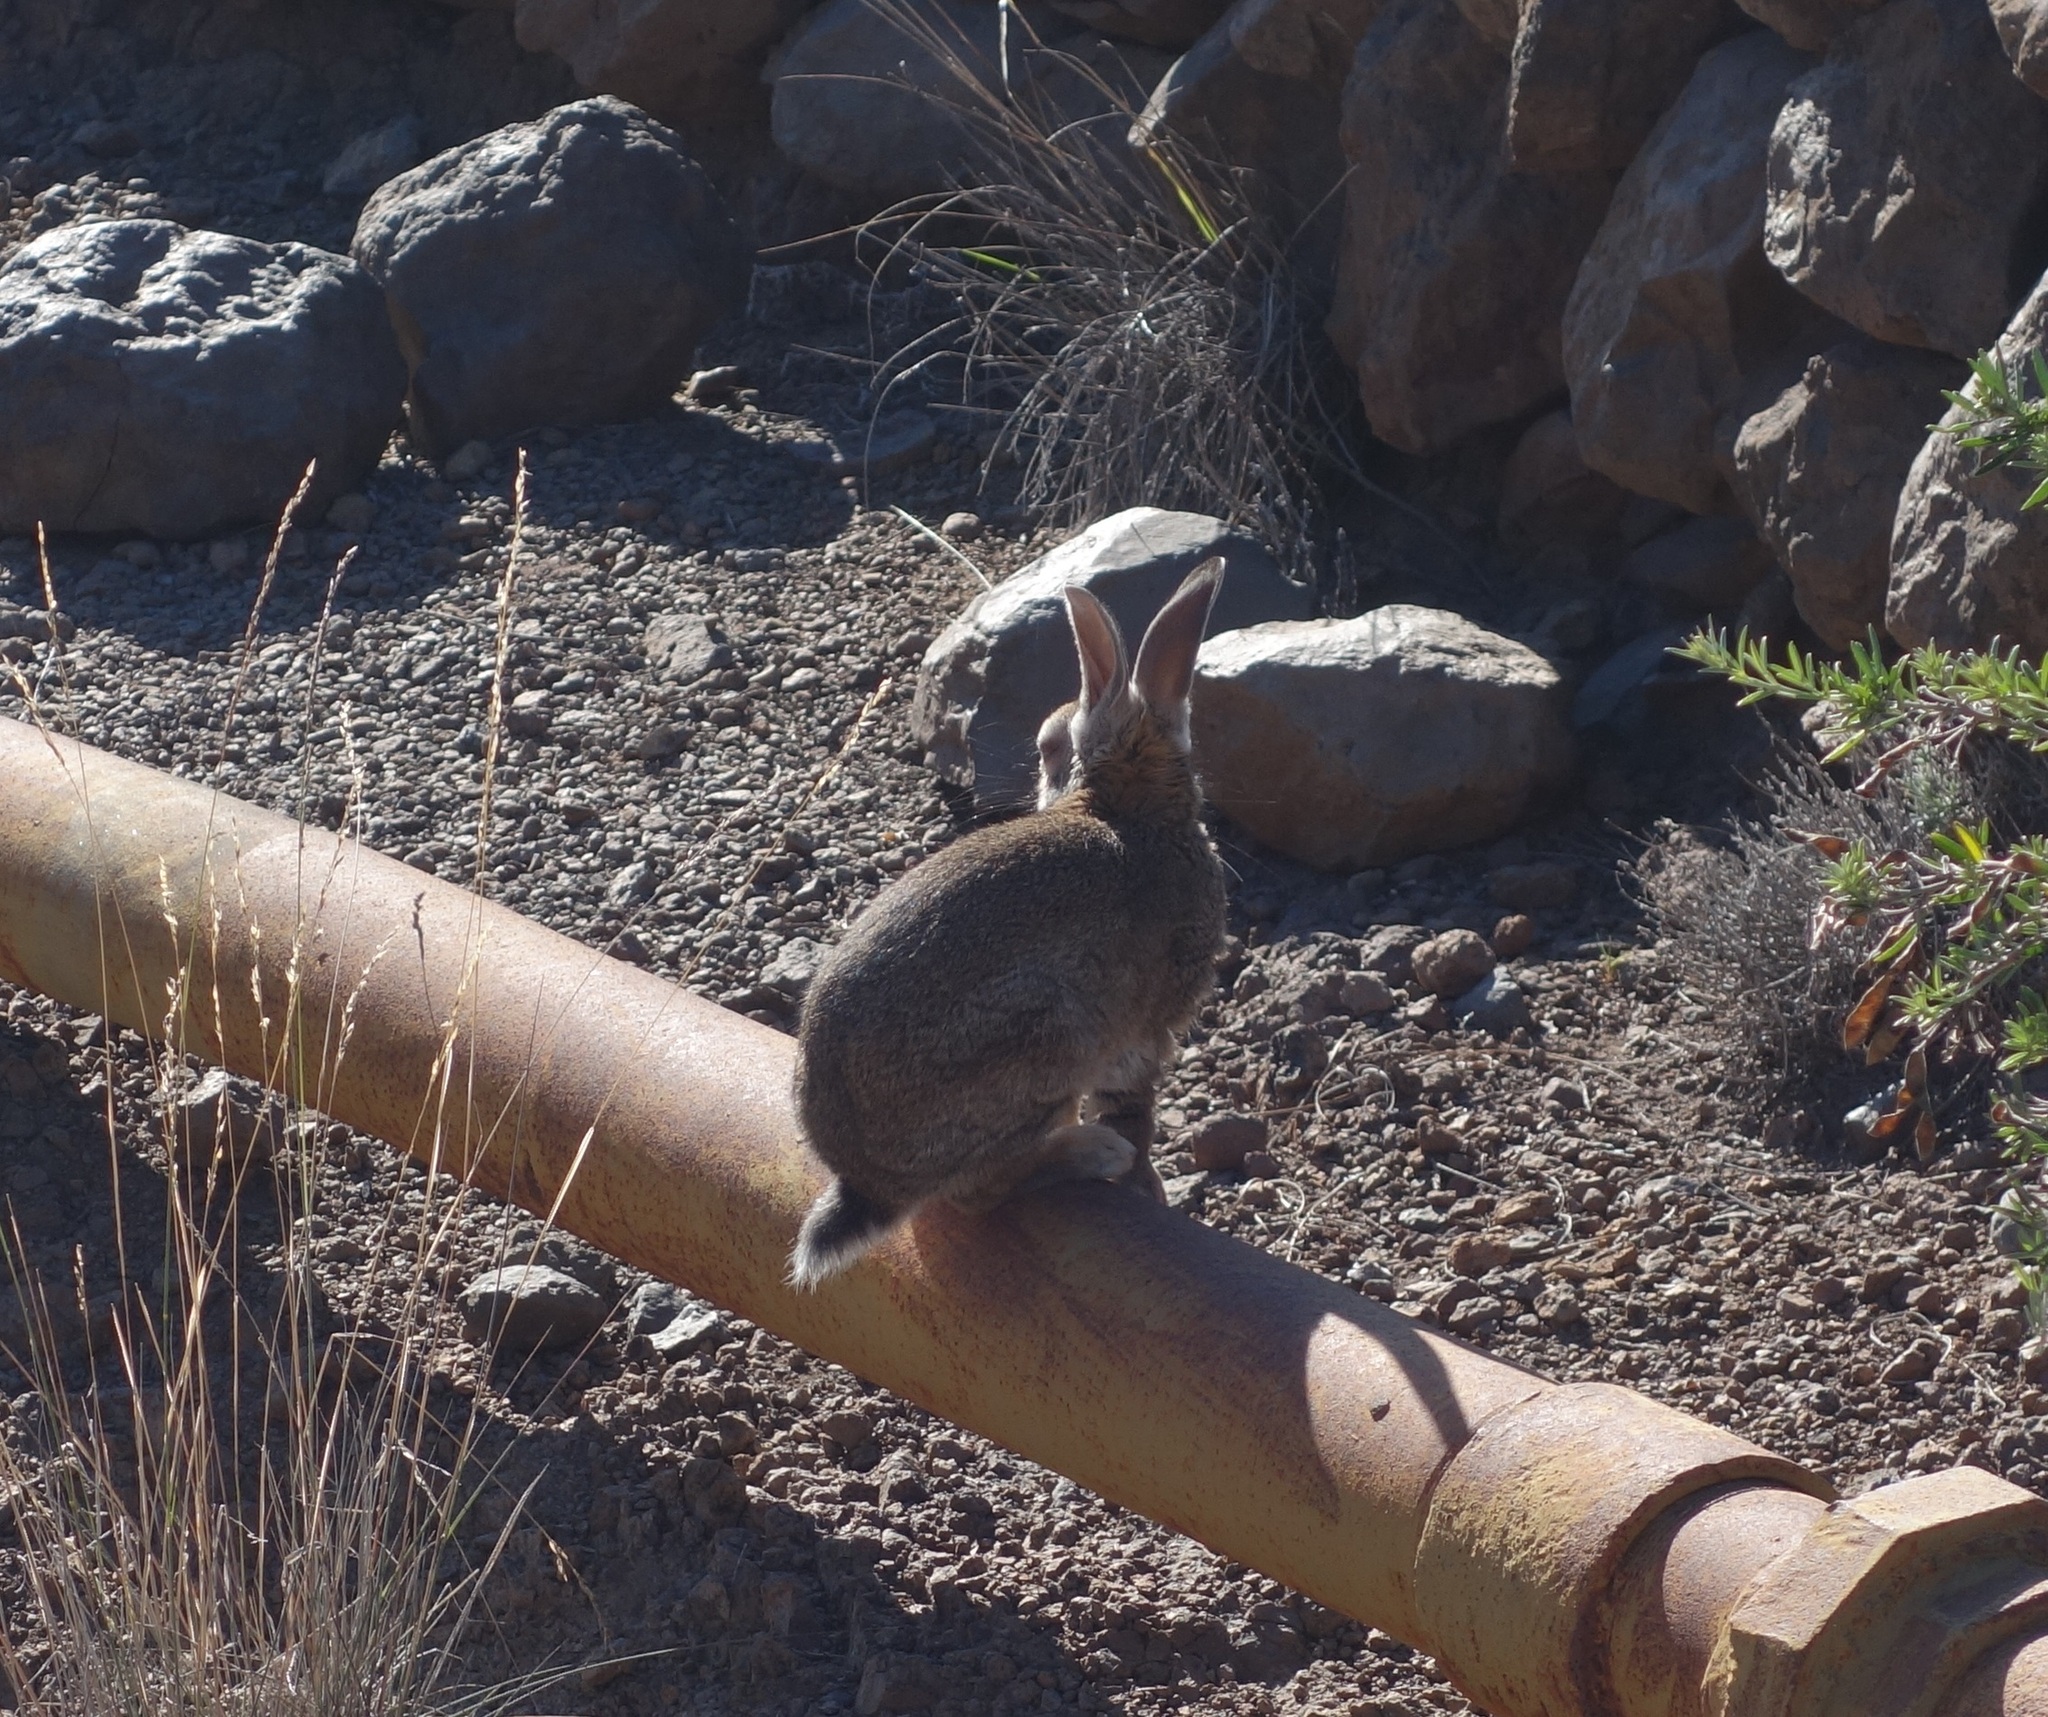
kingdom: Animalia
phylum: Chordata
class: Mammalia
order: Lagomorpha
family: Leporidae
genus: Oryctolagus
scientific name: Oryctolagus cuniculus
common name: European rabbit
